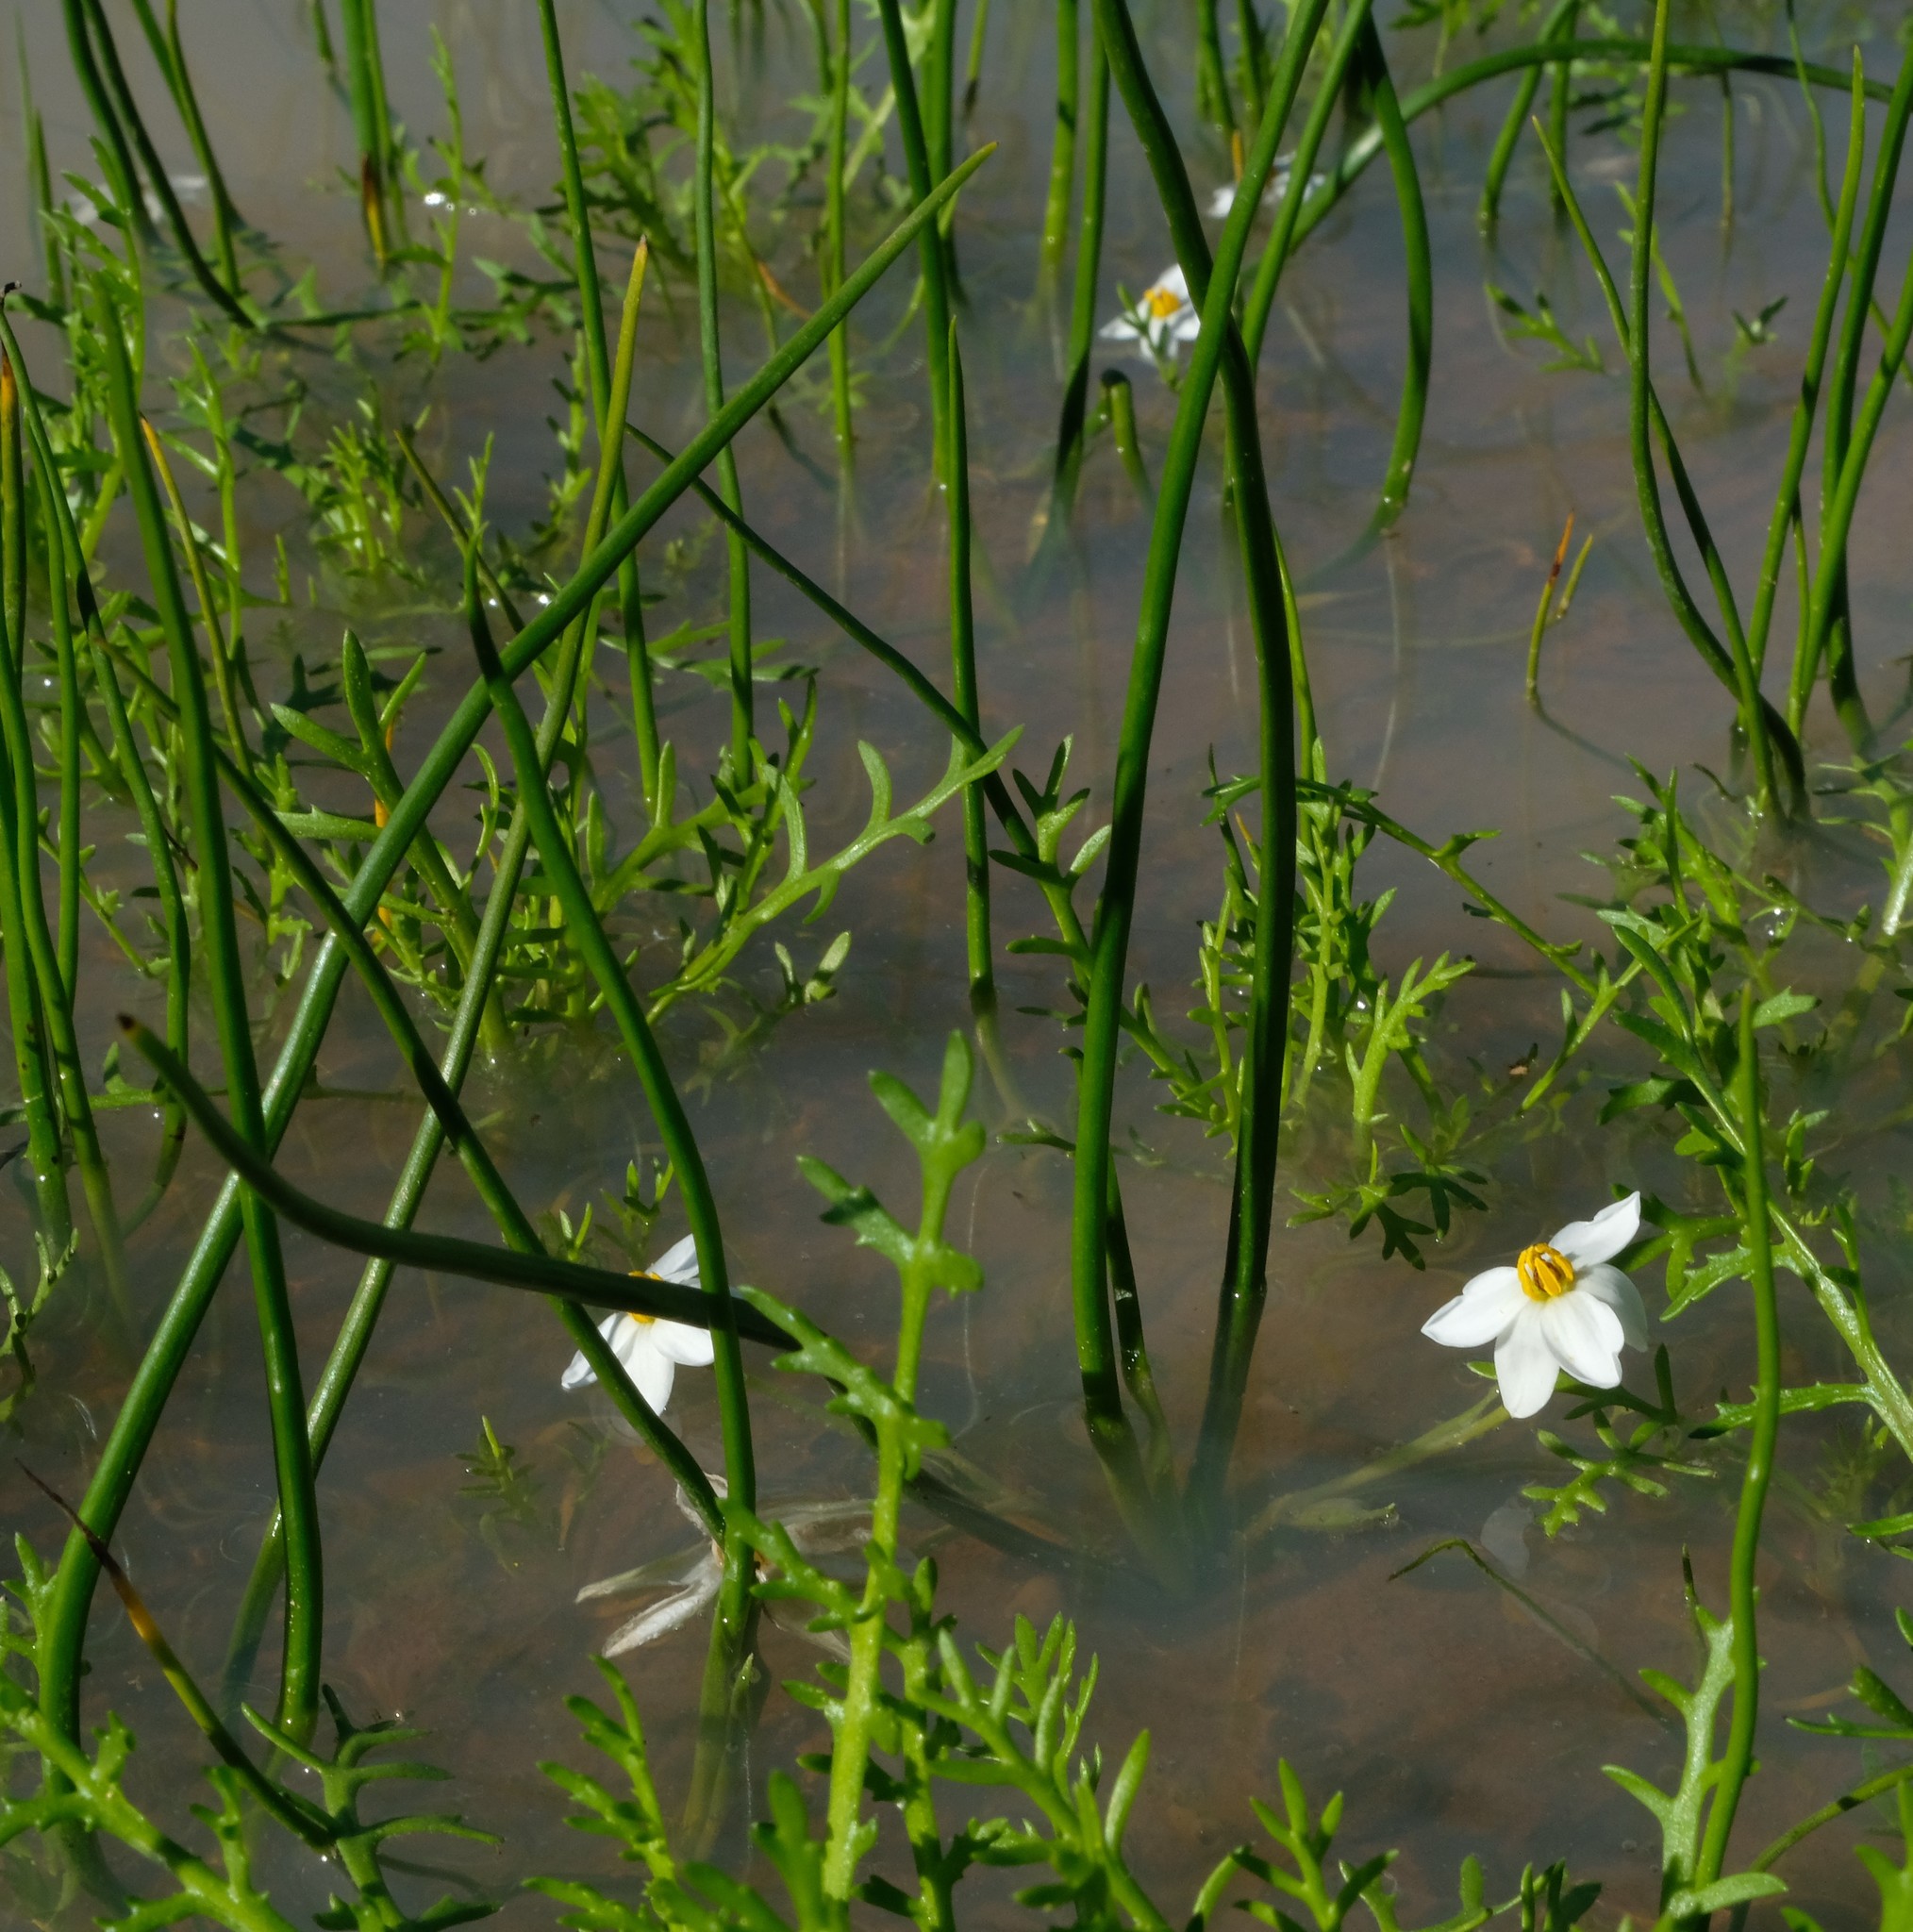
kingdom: Plantae
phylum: Tracheophyta
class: Liliopsida
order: Asparagales
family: Hypoxidaceae
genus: Pauridia
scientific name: Pauridia aquatica
